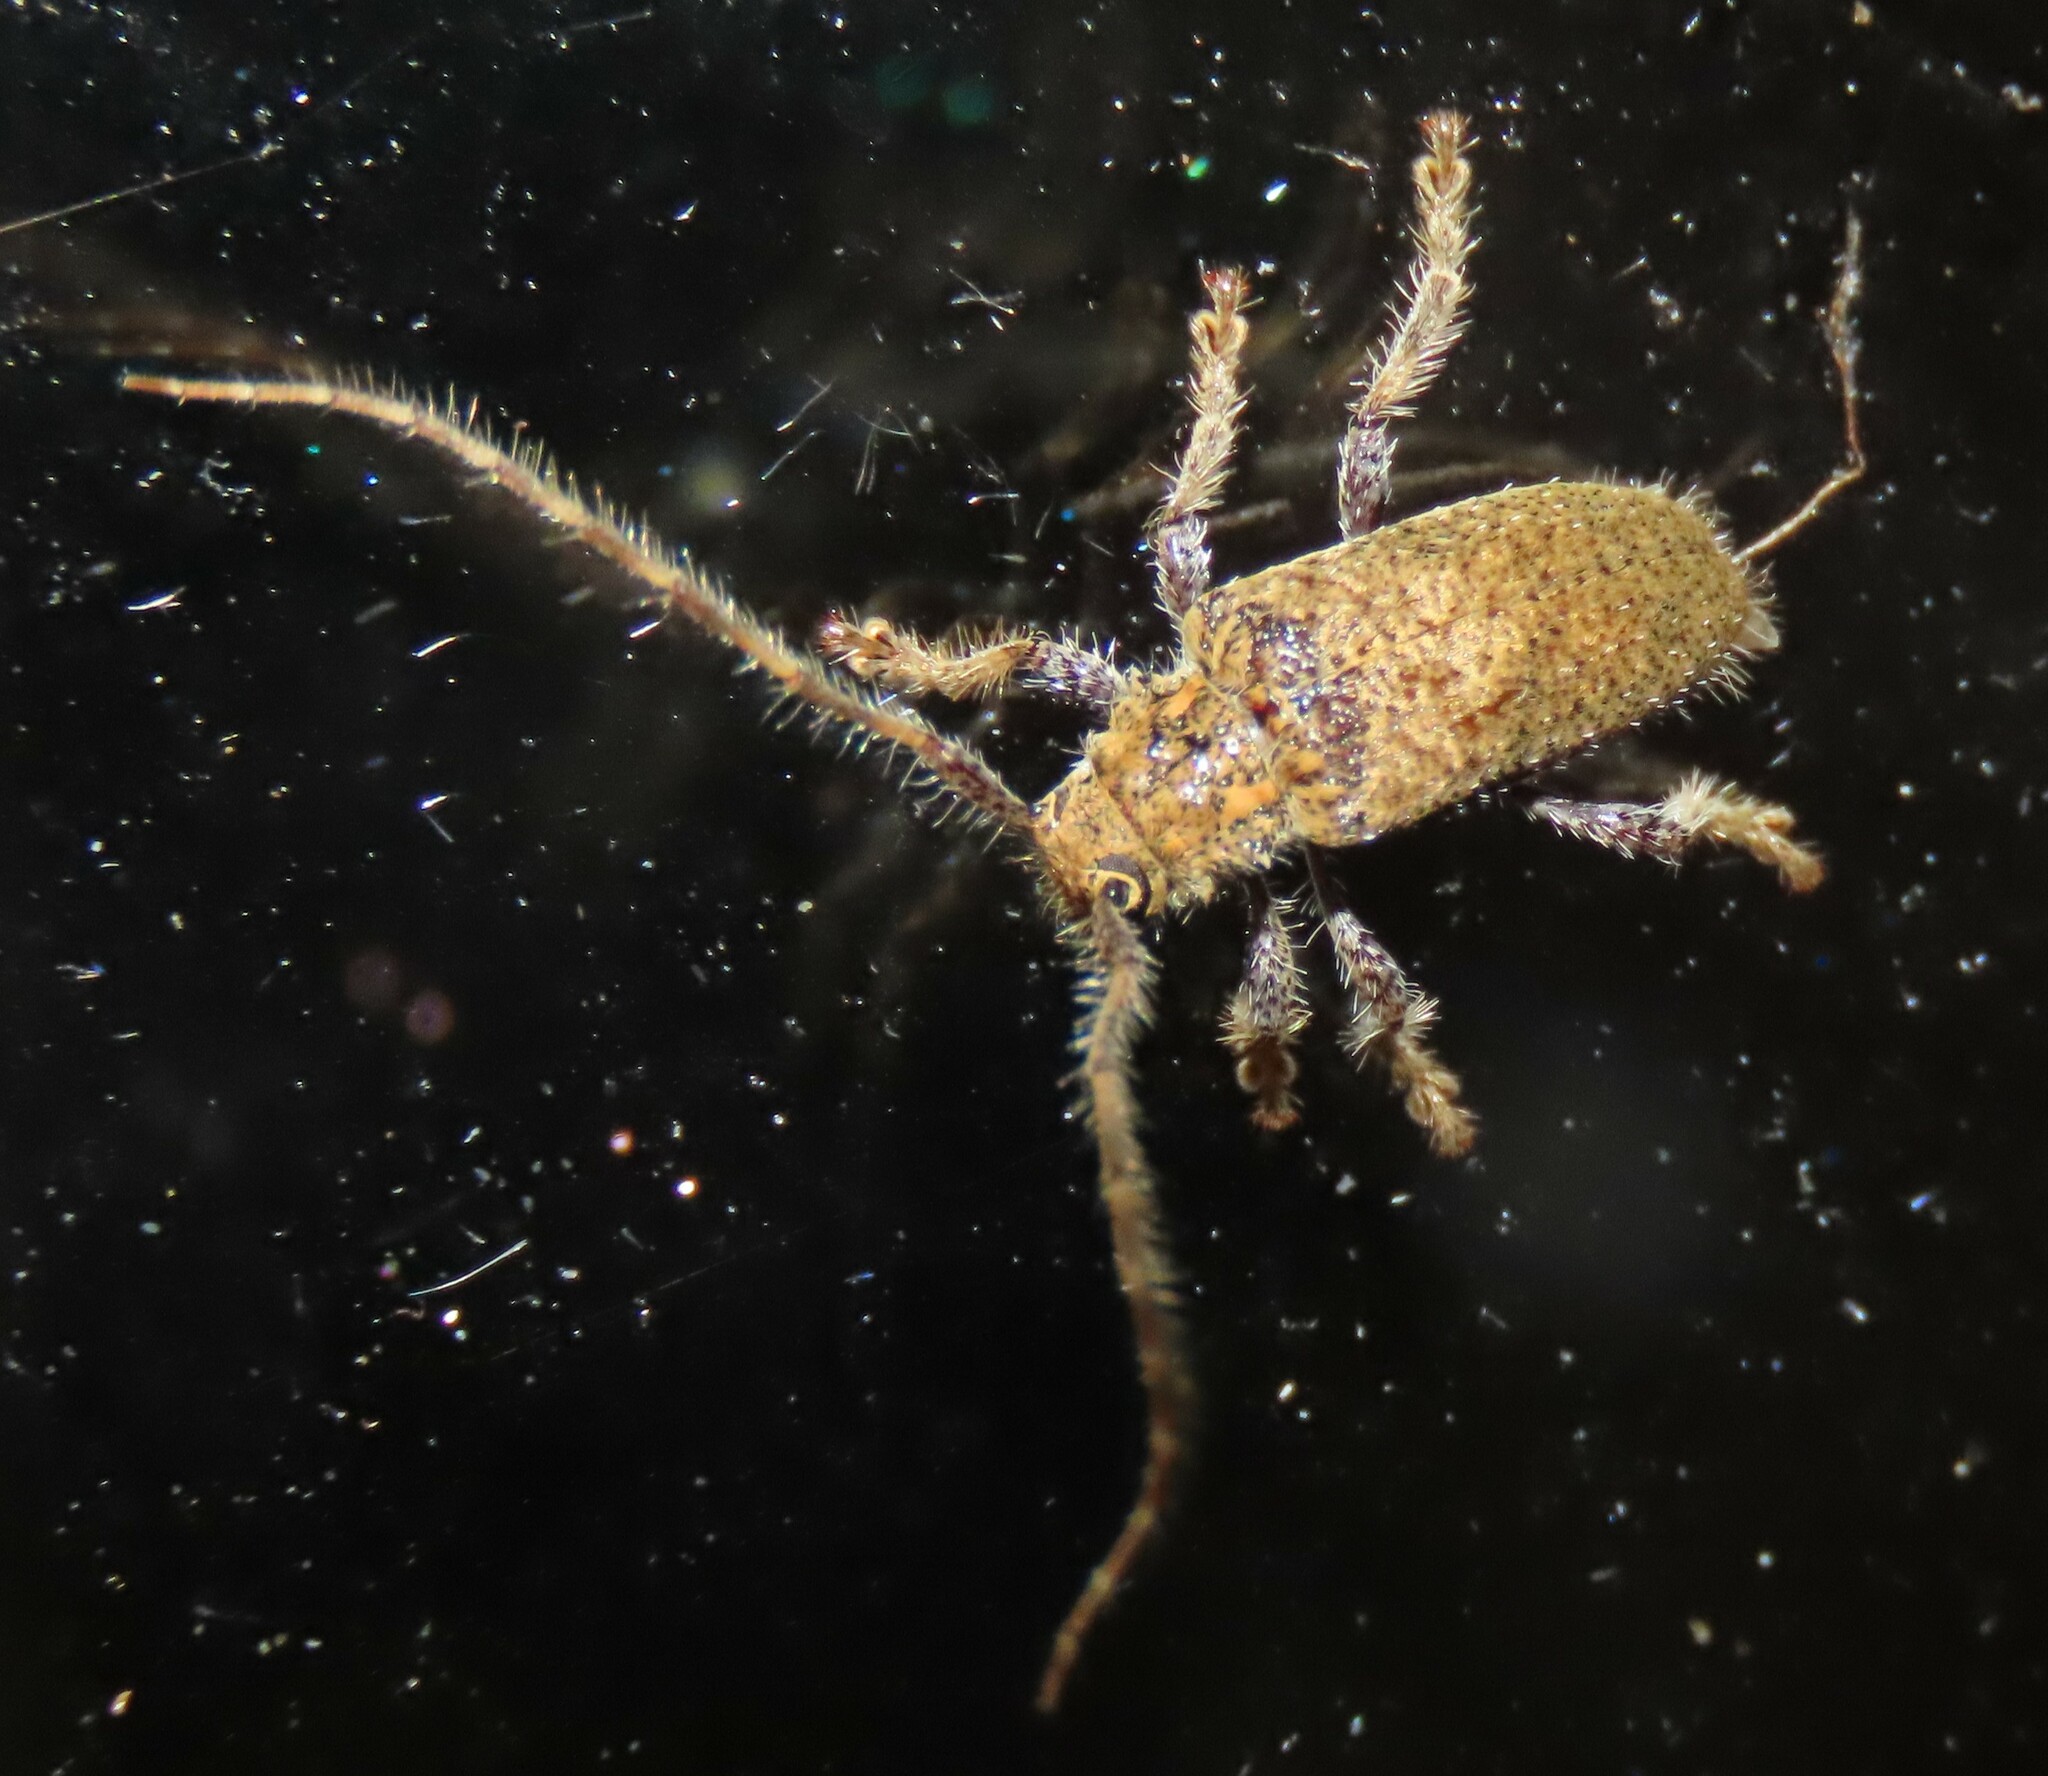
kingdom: Animalia
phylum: Arthropoda
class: Insecta
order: Coleoptera
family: Cerambycidae
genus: Polyacanthia
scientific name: Polyacanthia flavipes
